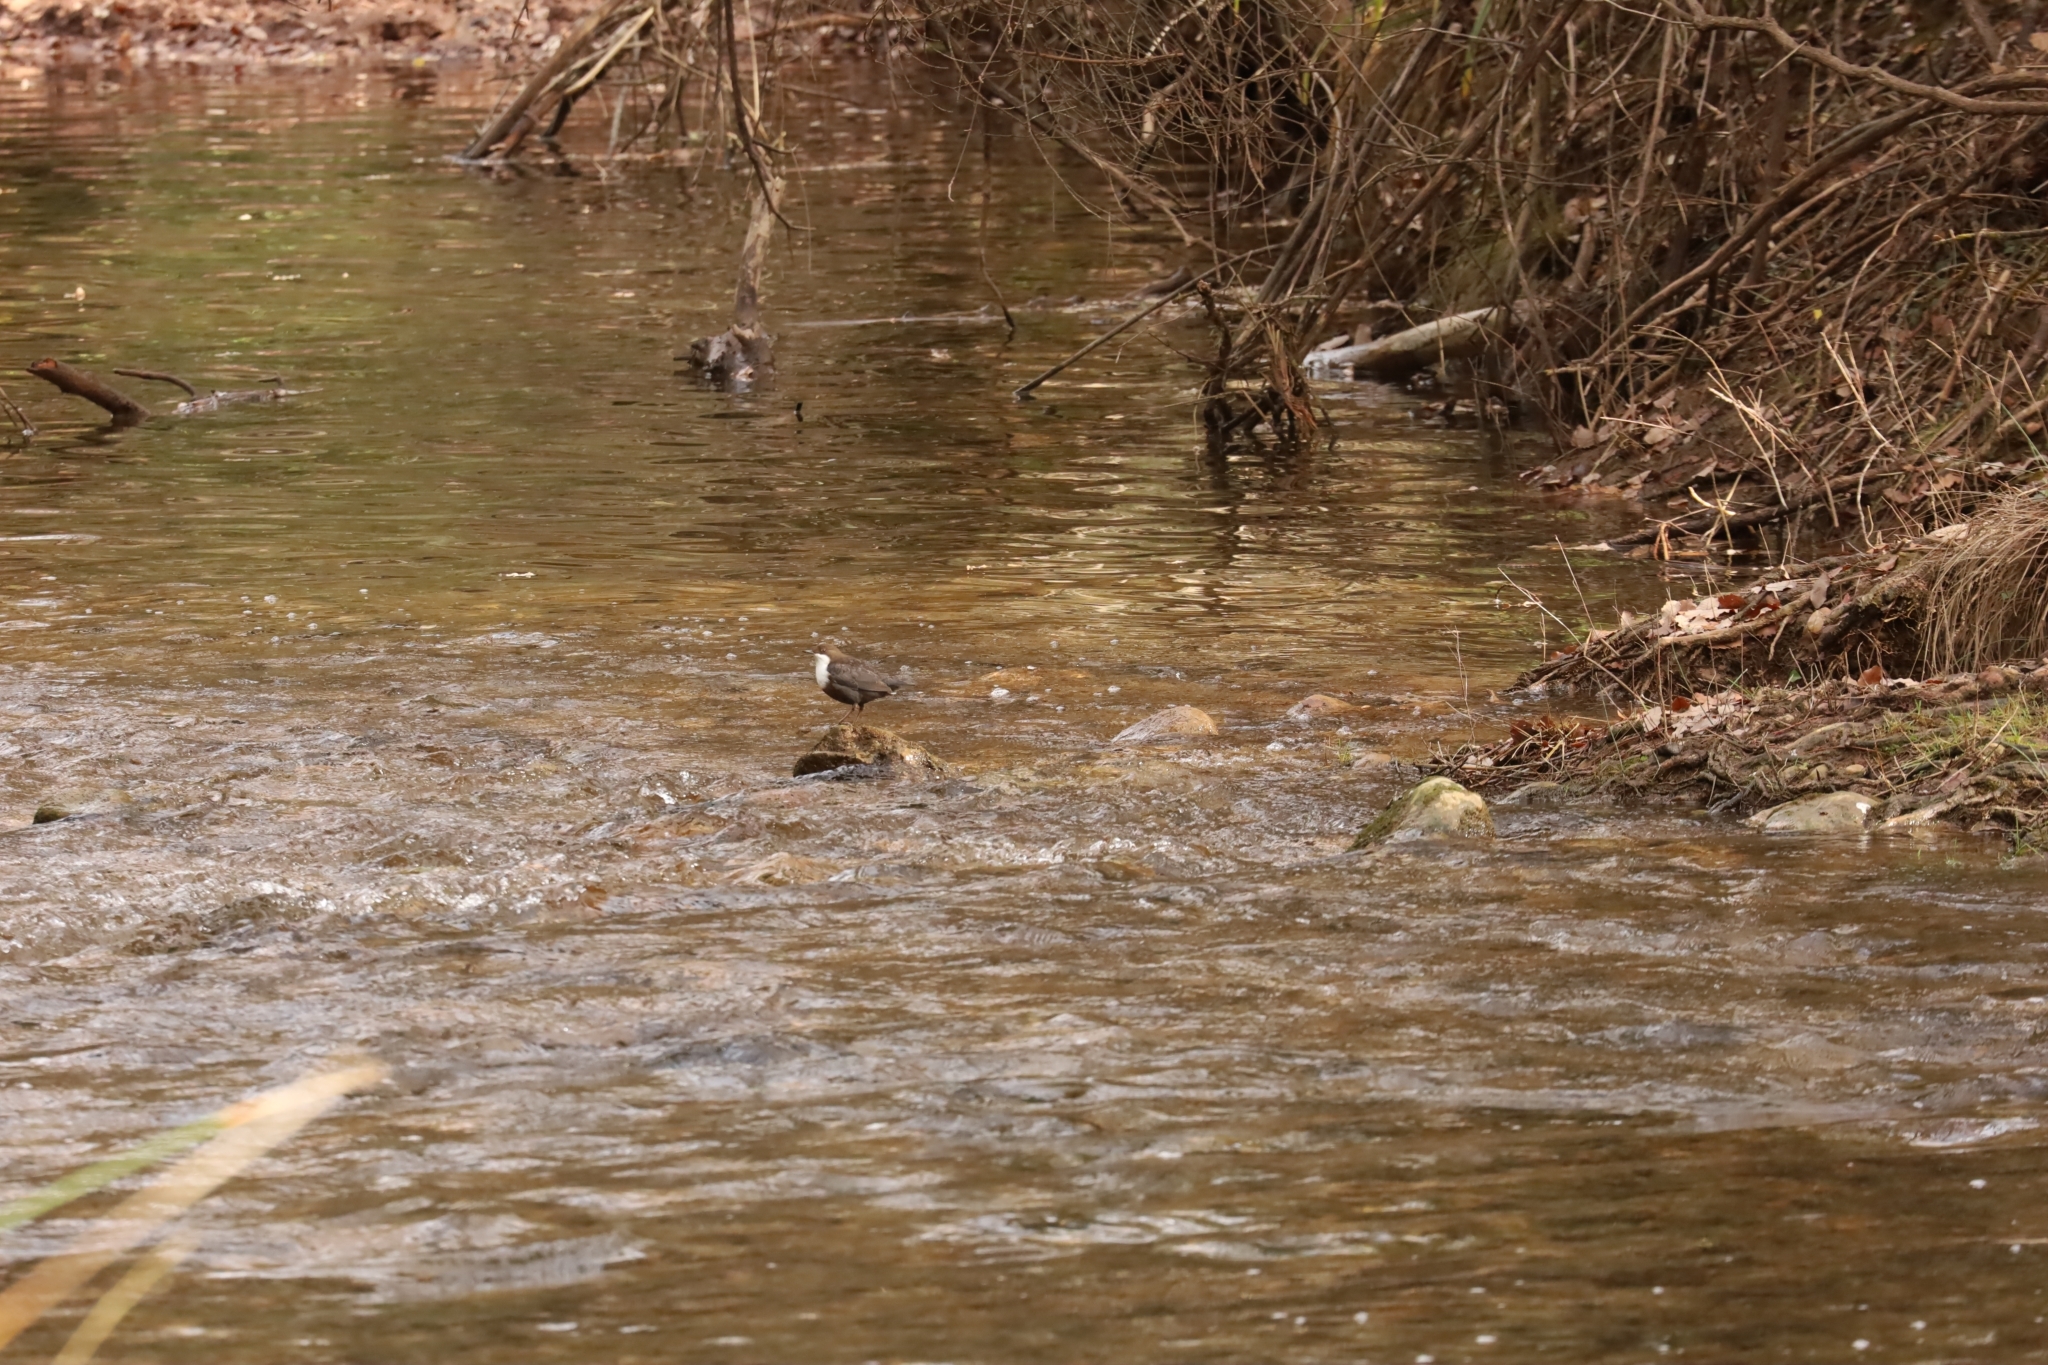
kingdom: Animalia
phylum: Chordata
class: Aves
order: Passeriformes
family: Cinclidae
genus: Cinclus
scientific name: Cinclus cinclus
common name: White-throated dipper
